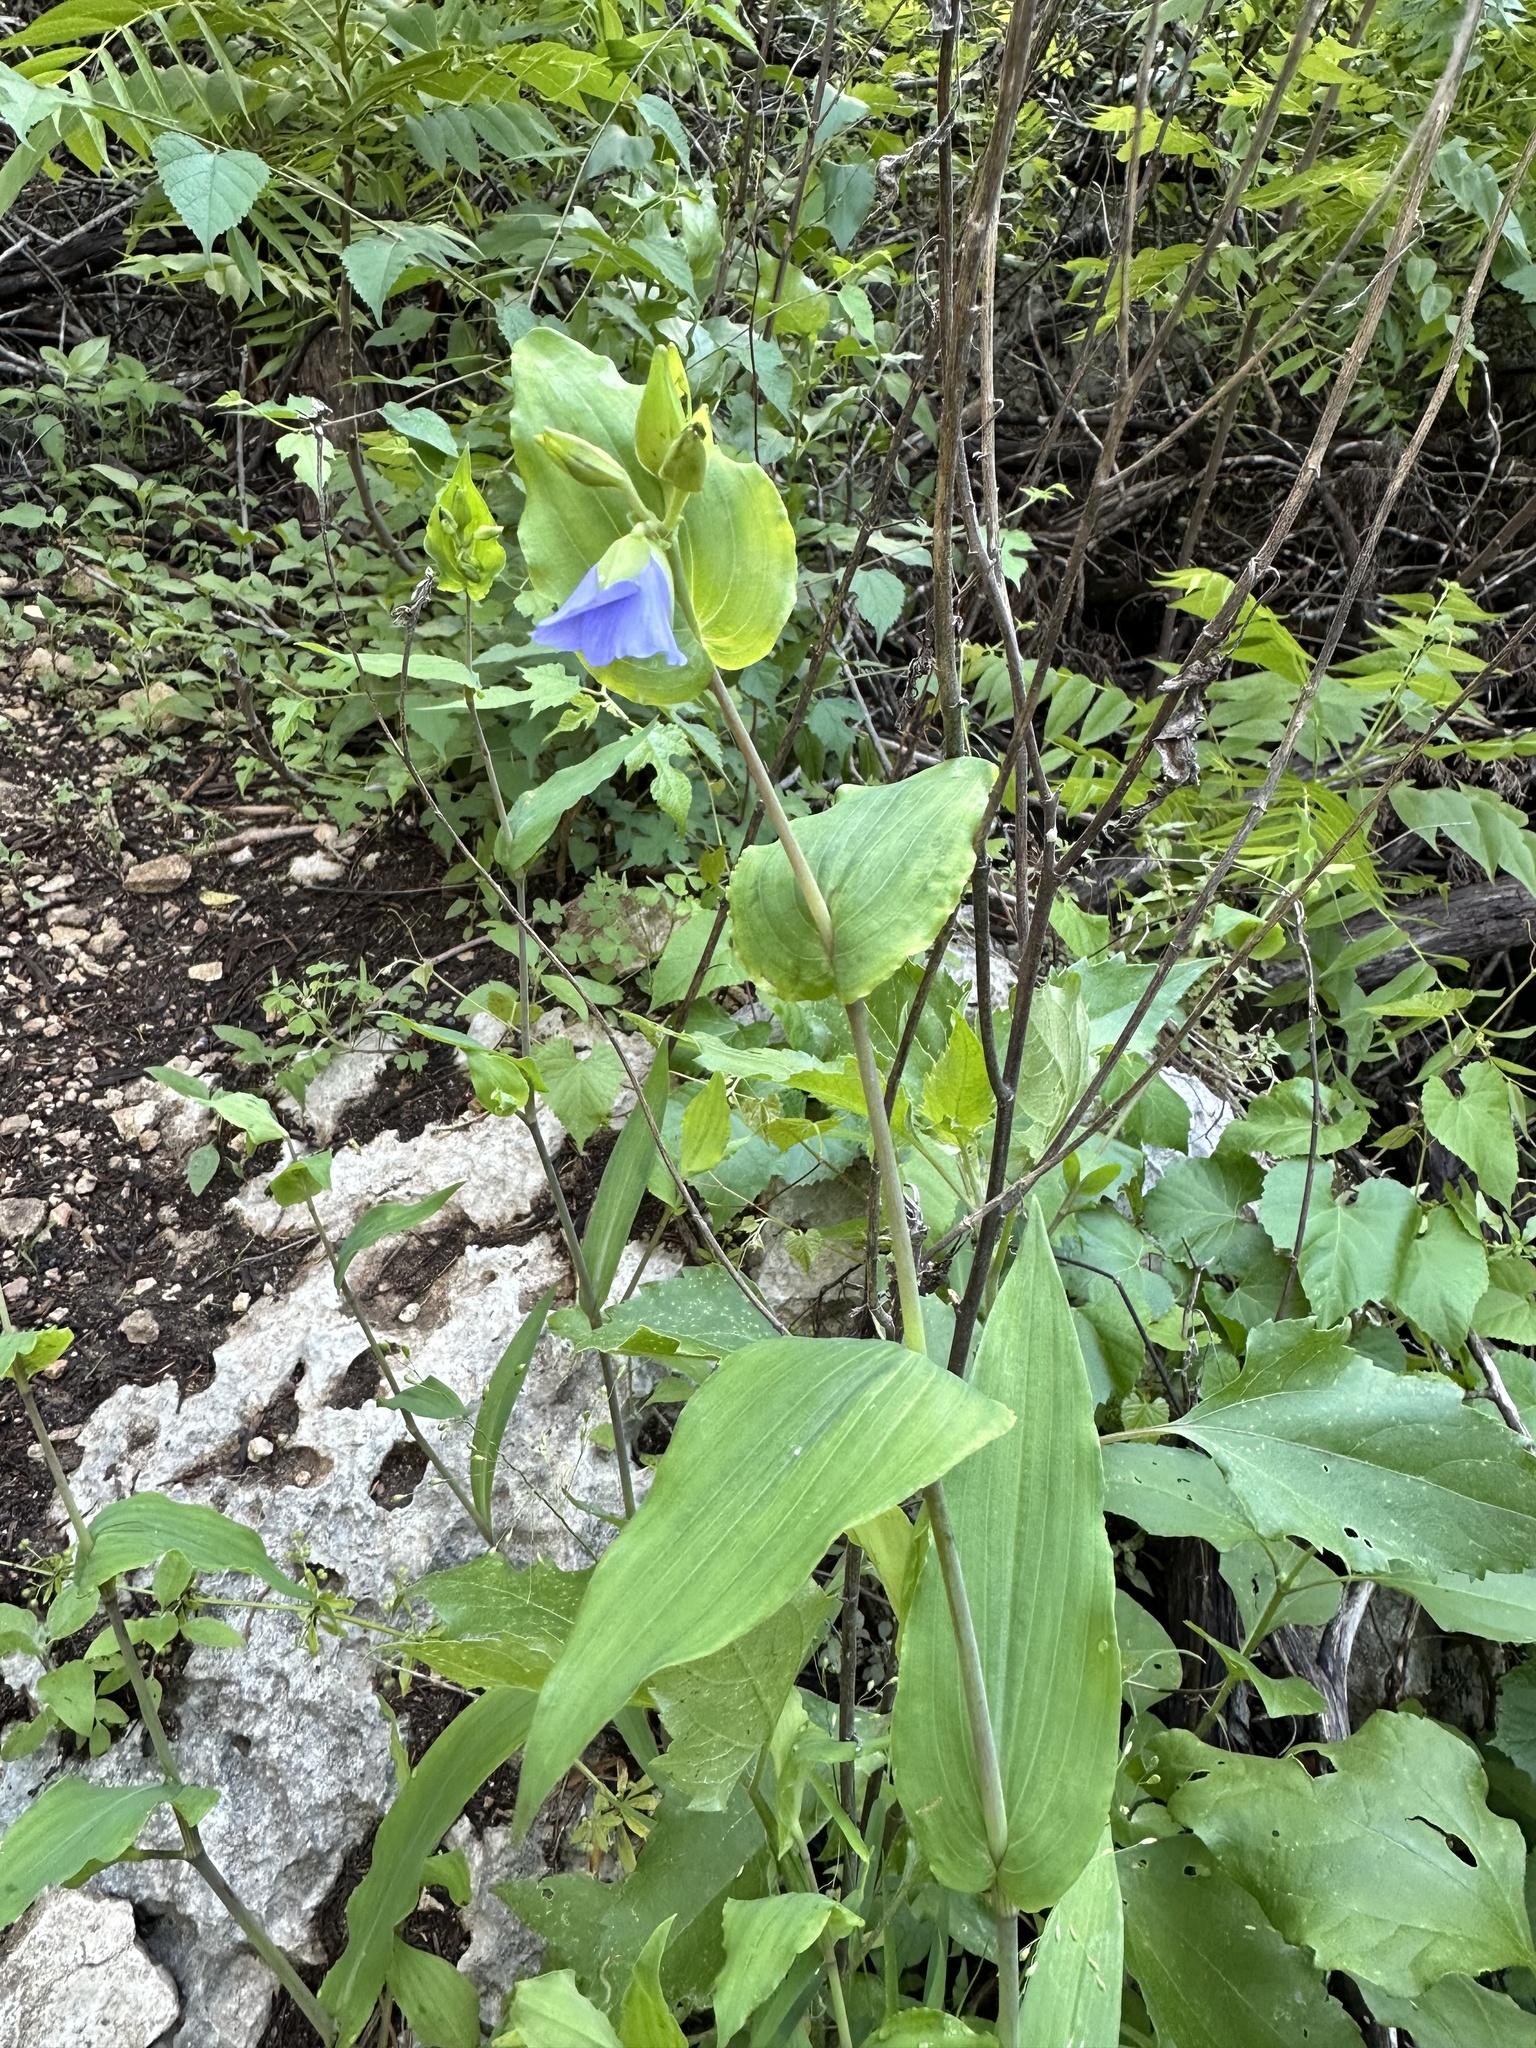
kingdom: Plantae
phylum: Tracheophyta
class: Liliopsida
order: Commelinales
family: Commelinaceae
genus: Tinantia
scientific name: Tinantia anomala
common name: False dayflower
